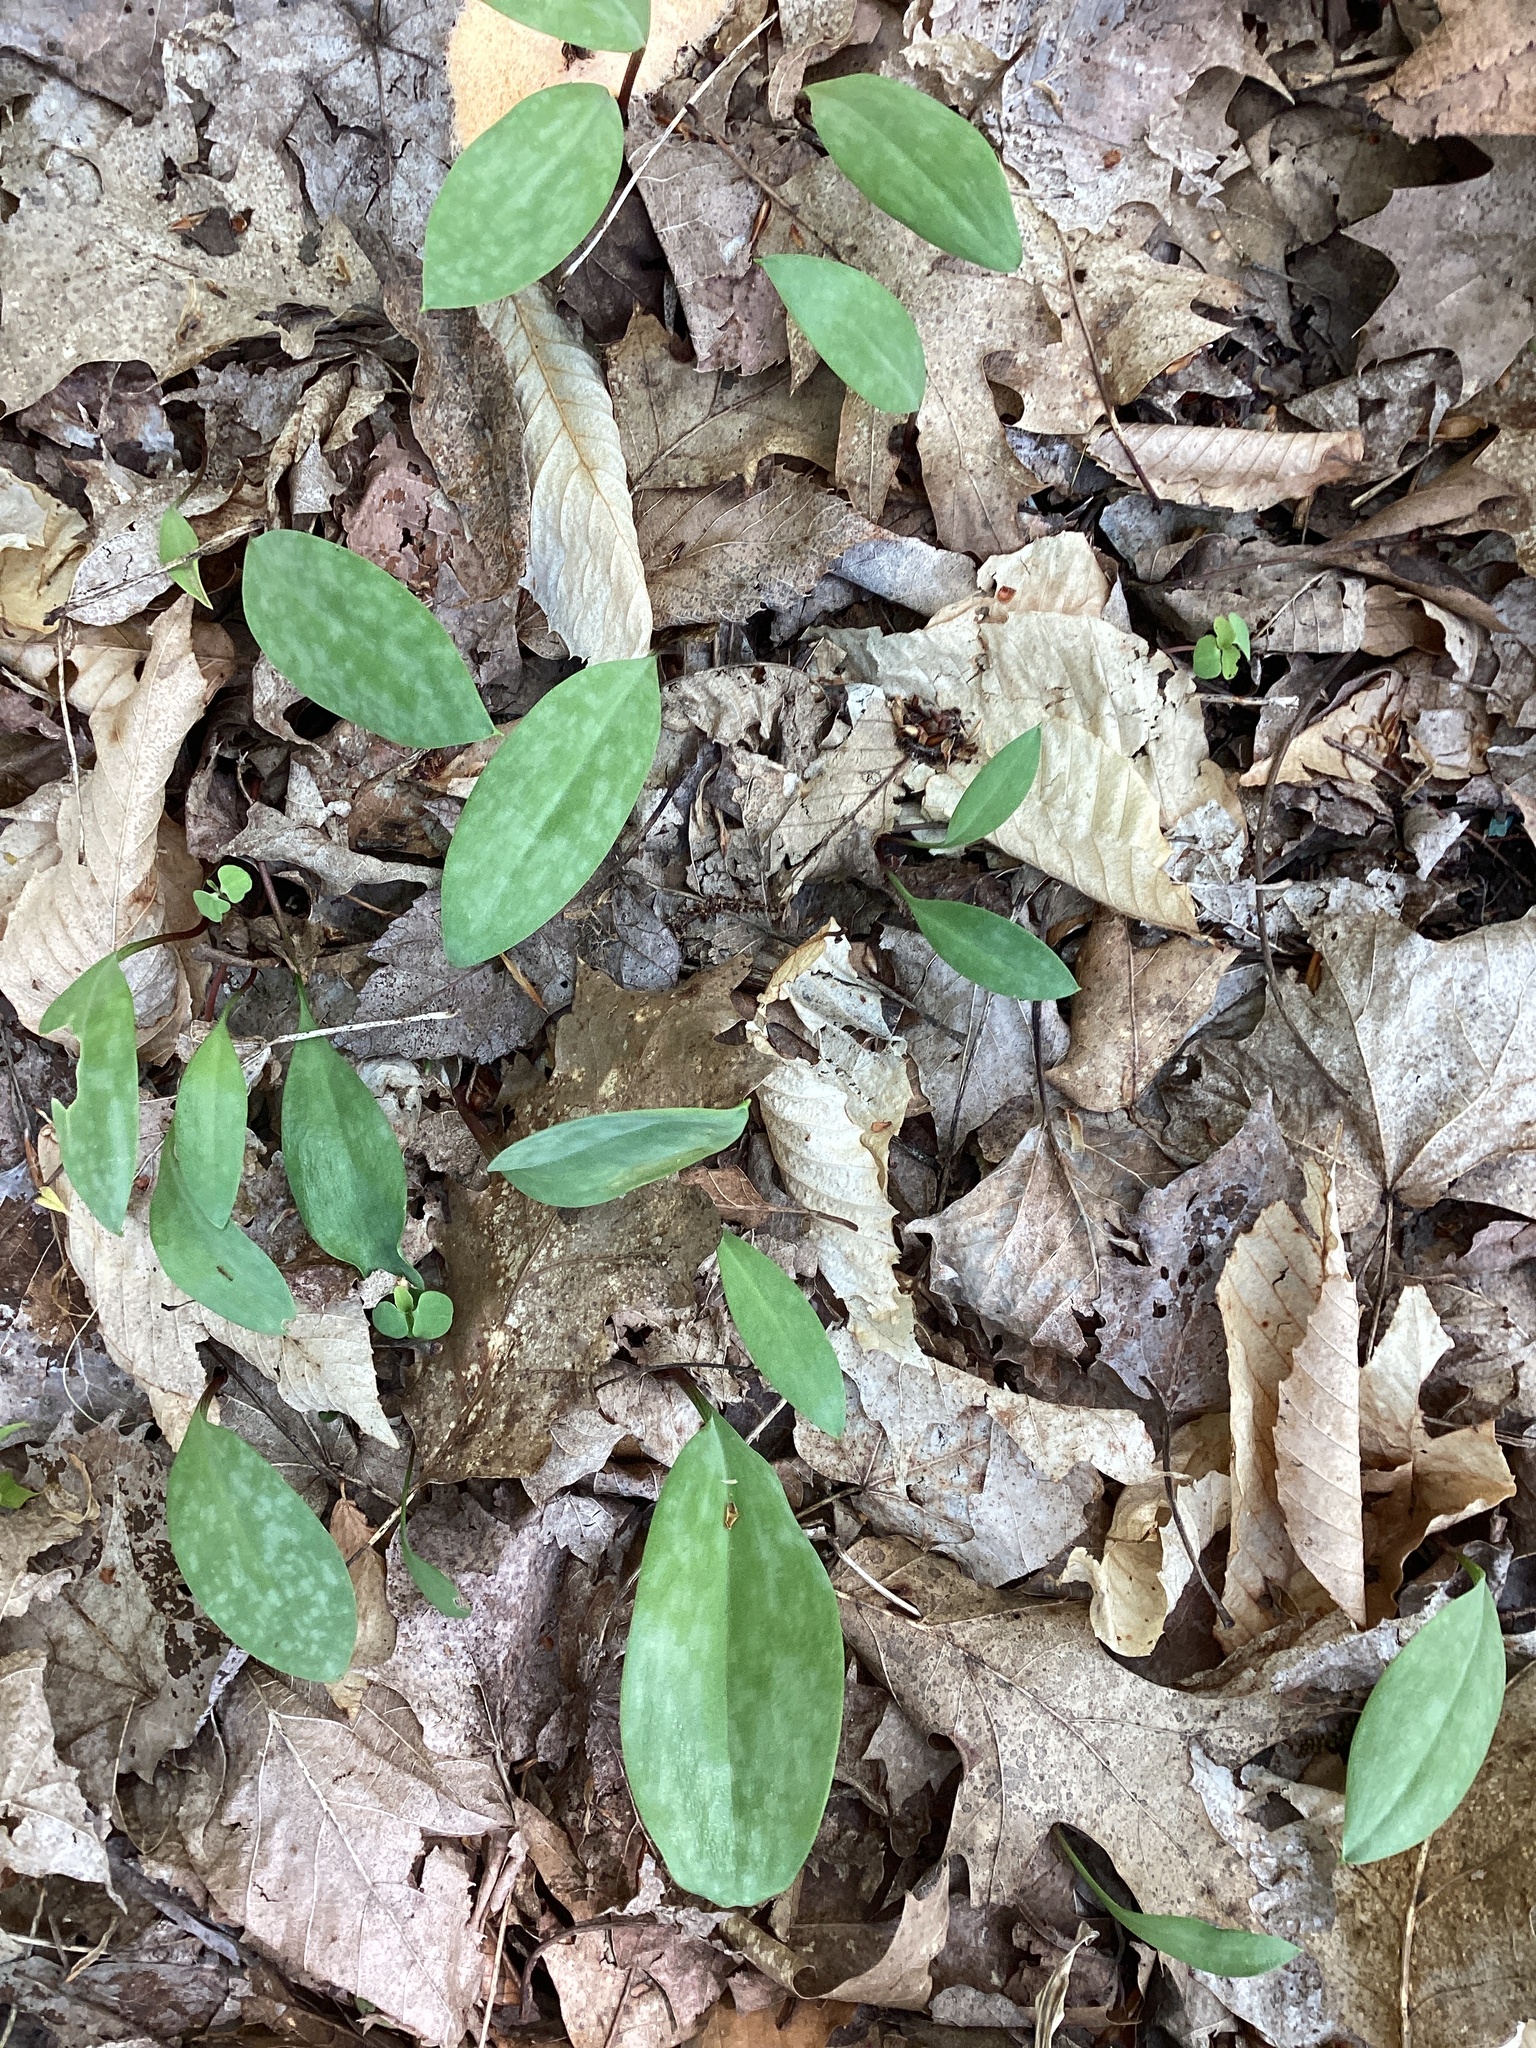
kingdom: Plantae
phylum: Tracheophyta
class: Liliopsida
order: Liliales
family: Liliaceae
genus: Erythronium
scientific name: Erythronium americanum
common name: Yellow adder's-tongue
